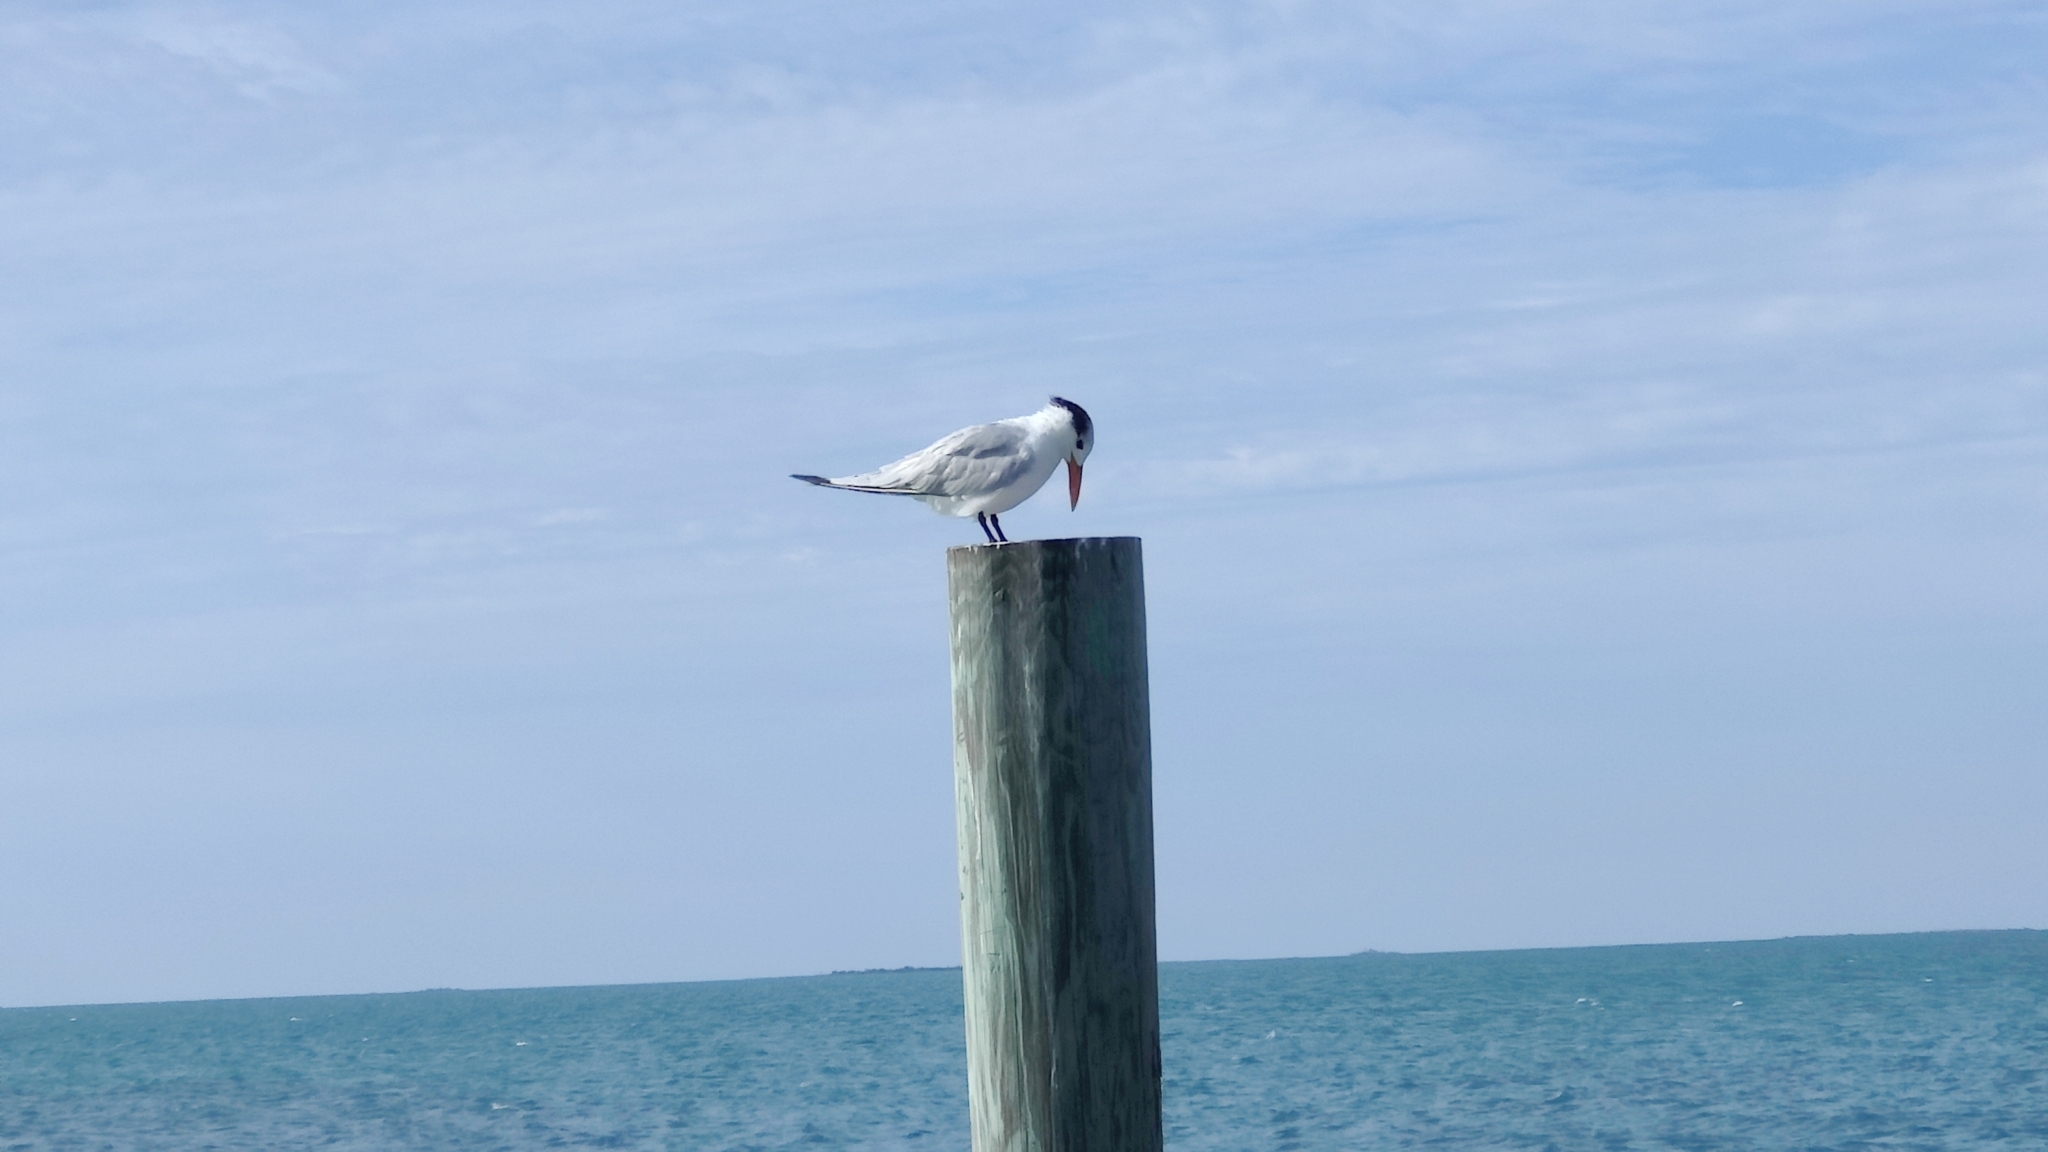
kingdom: Animalia
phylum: Chordata
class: Aves
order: Charadriiformes
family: Laridae
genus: Thalasseus
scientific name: Thalasseus maximus
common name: Royal tern
